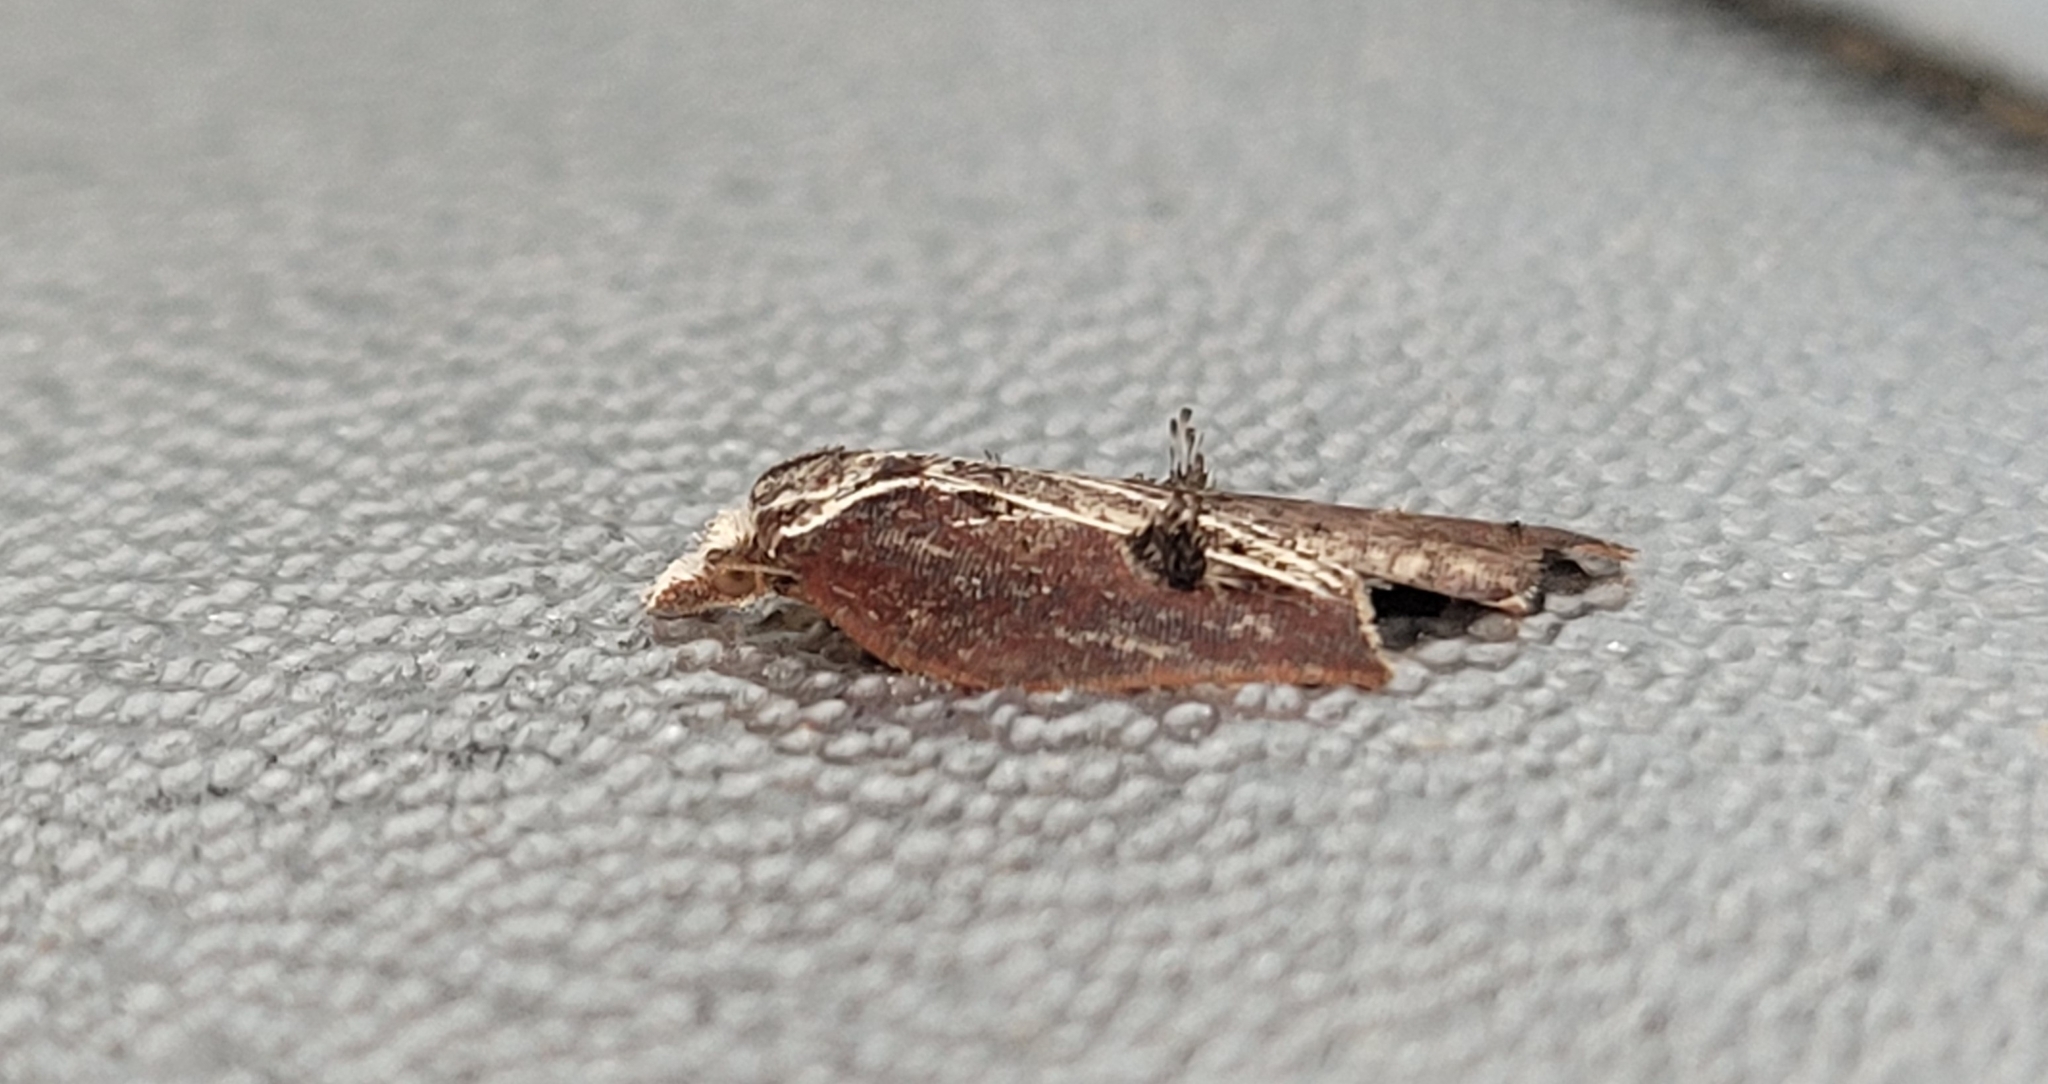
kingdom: Animalia
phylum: Arthropoda
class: Insecta
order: Lepidoptera
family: Tortricidae
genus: Acleris
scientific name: Acleris cristana
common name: Tufted button
